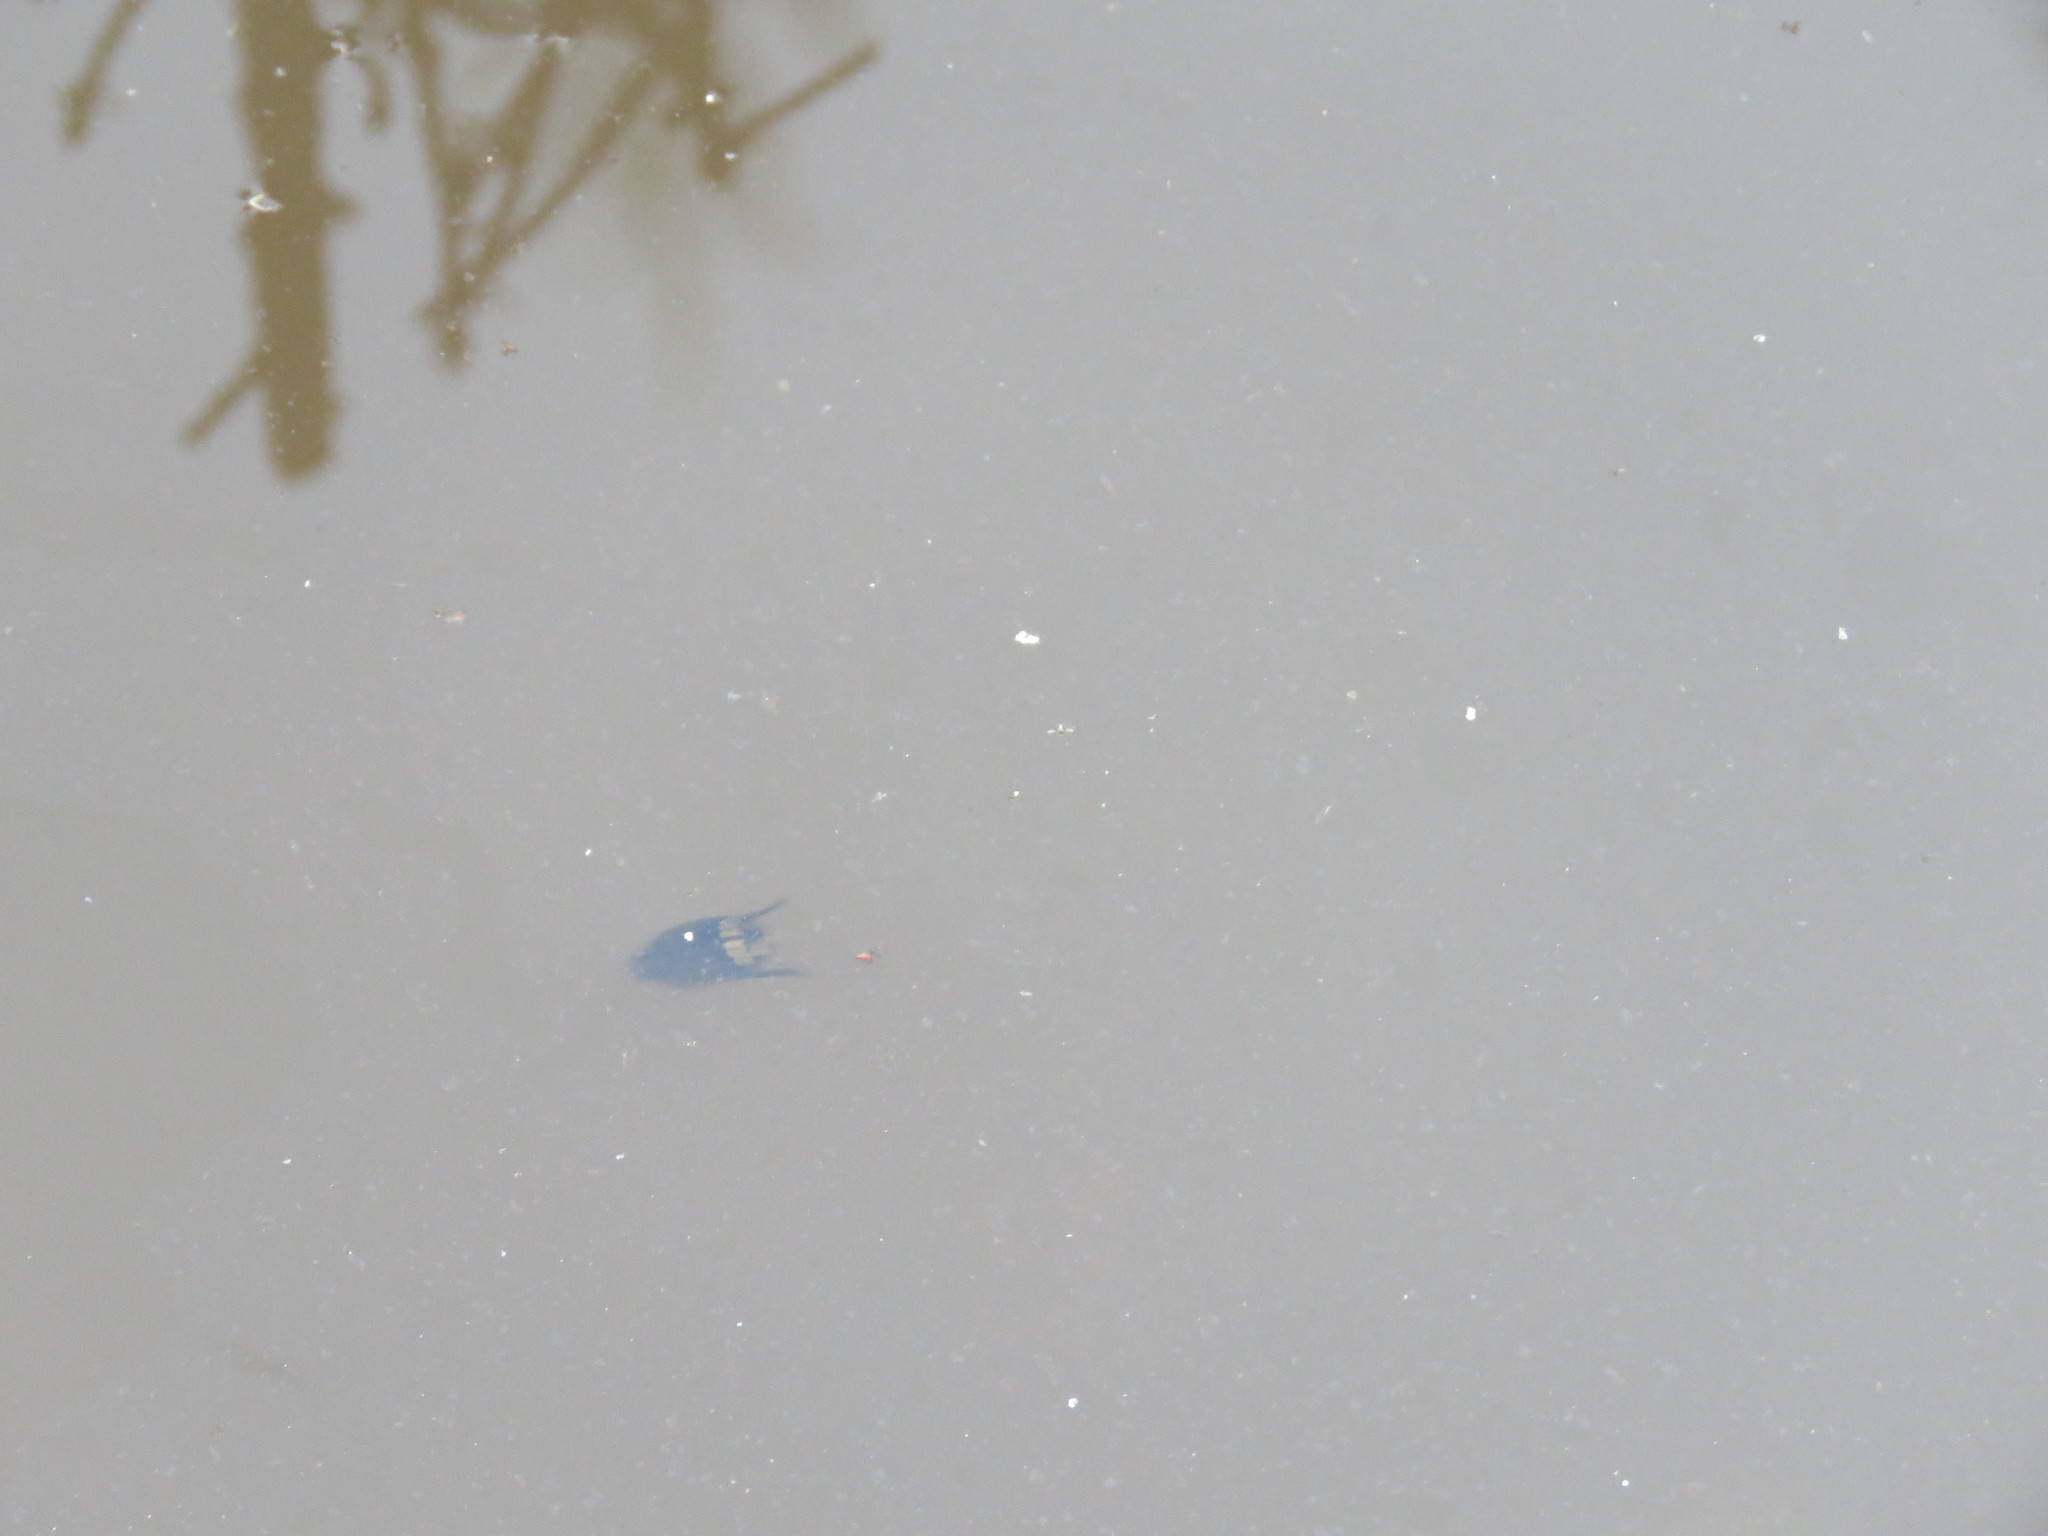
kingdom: Animalia
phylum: Arthropoda
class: Insecta
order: Coleoptera
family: Dytiscidae
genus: Acilius
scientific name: Acilius mediatus
